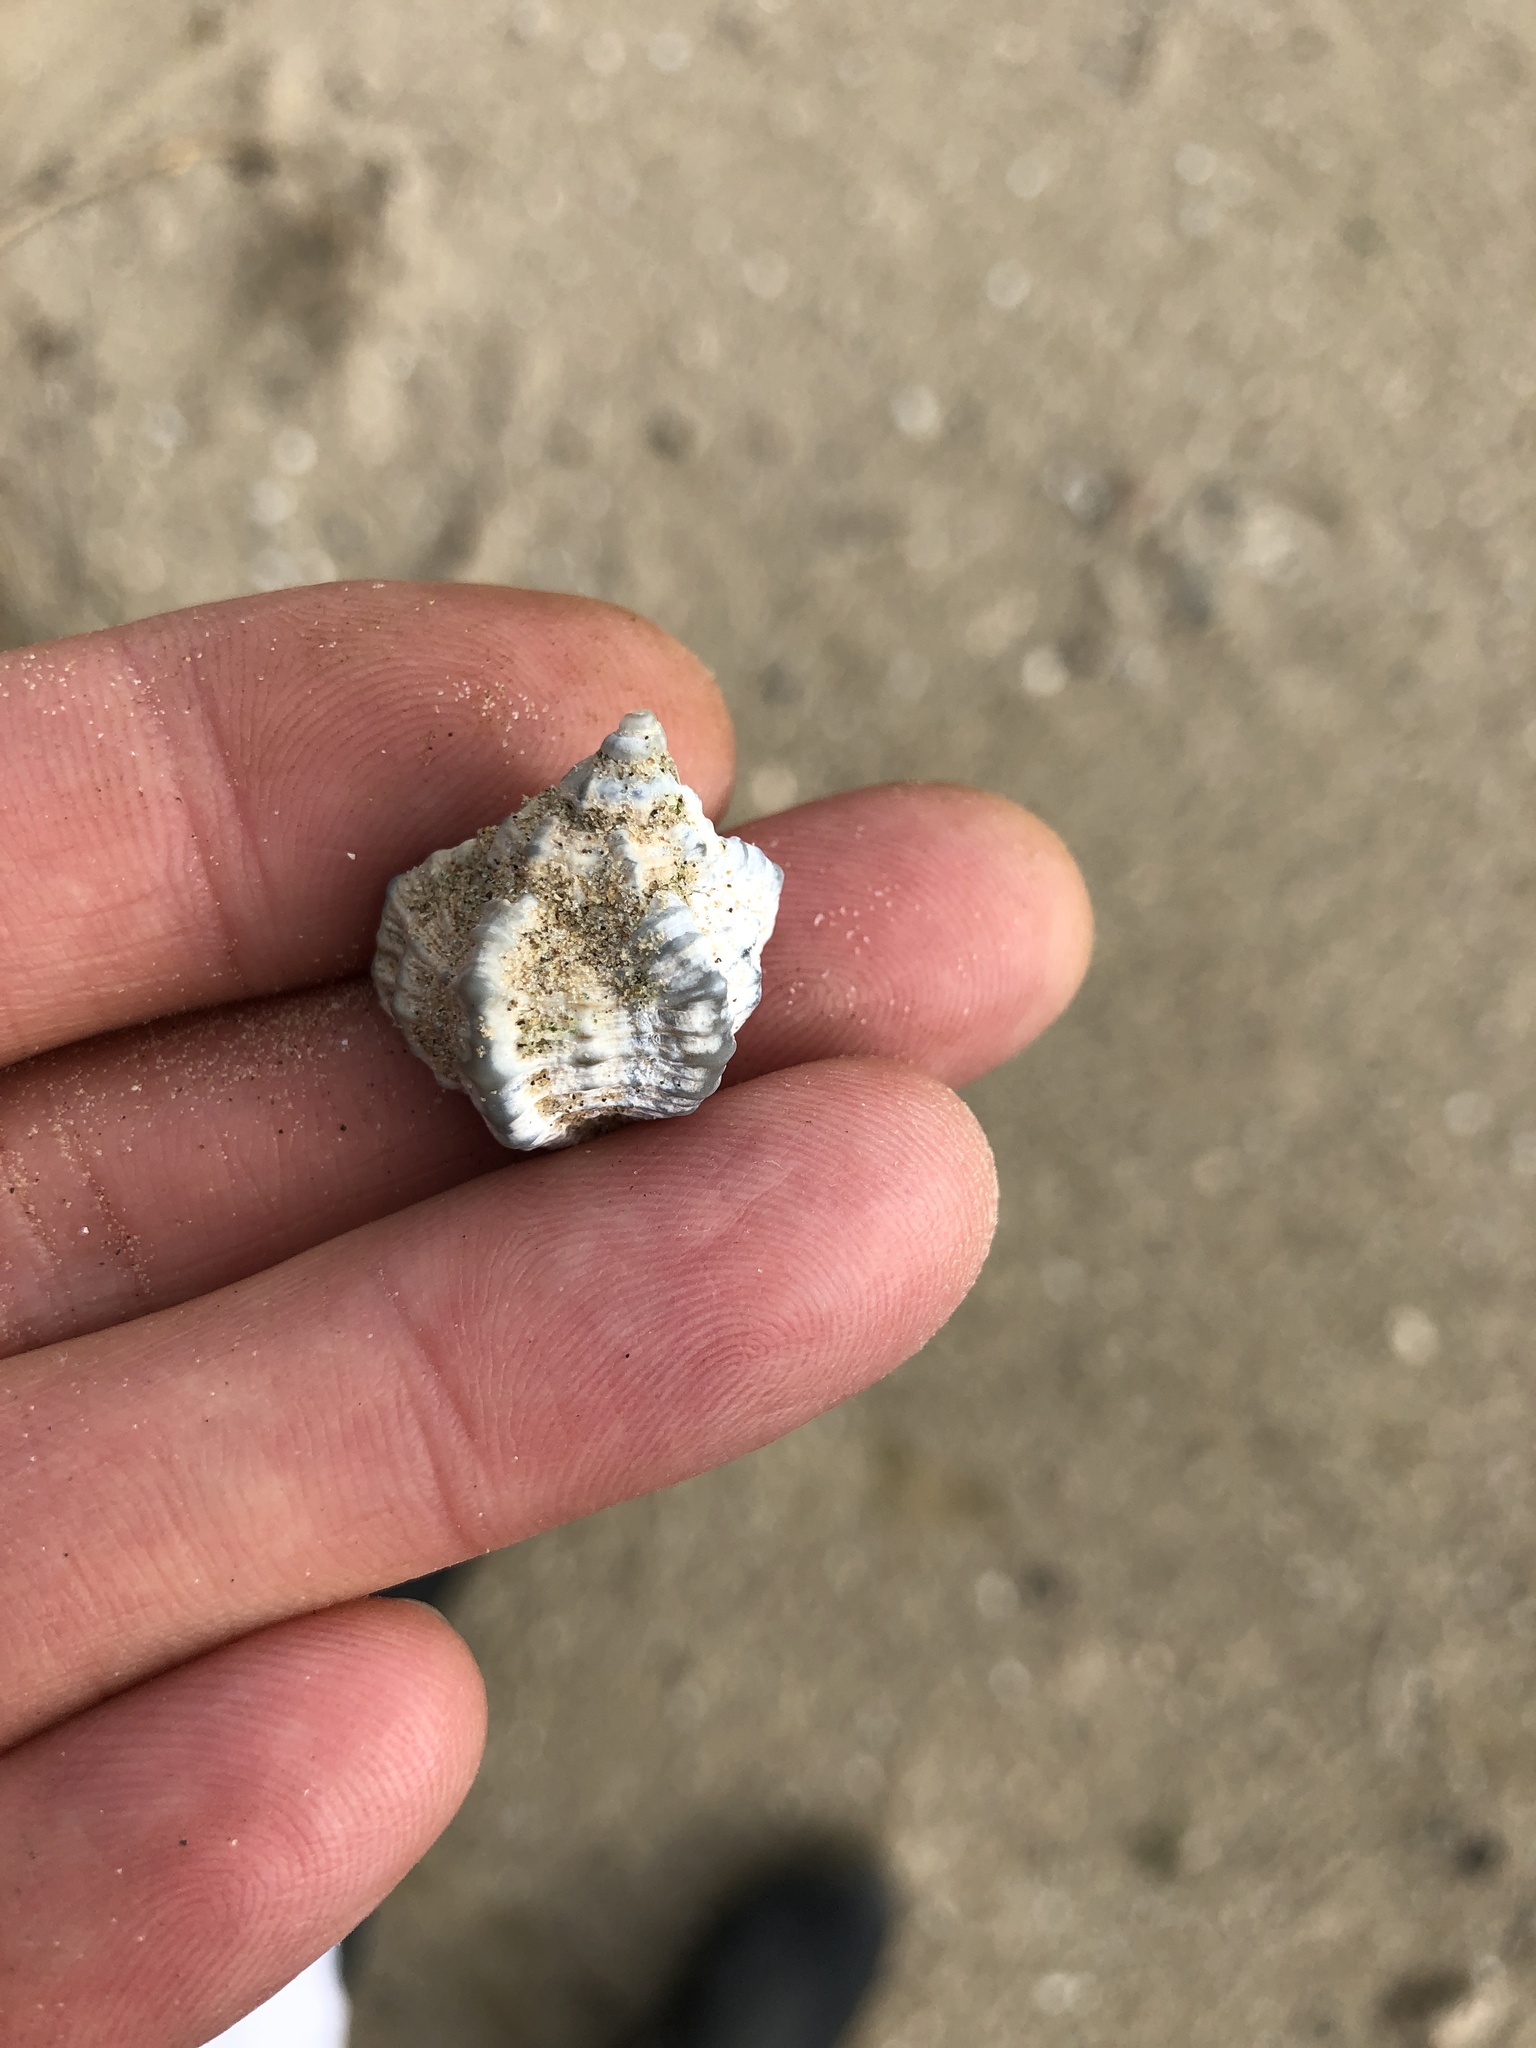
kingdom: Animalia
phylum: Mollusca
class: Gastropoda
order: Neogastropoda
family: Muricidae
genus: Phyllonotus
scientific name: Phyllonotus pomum
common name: Apple murex
